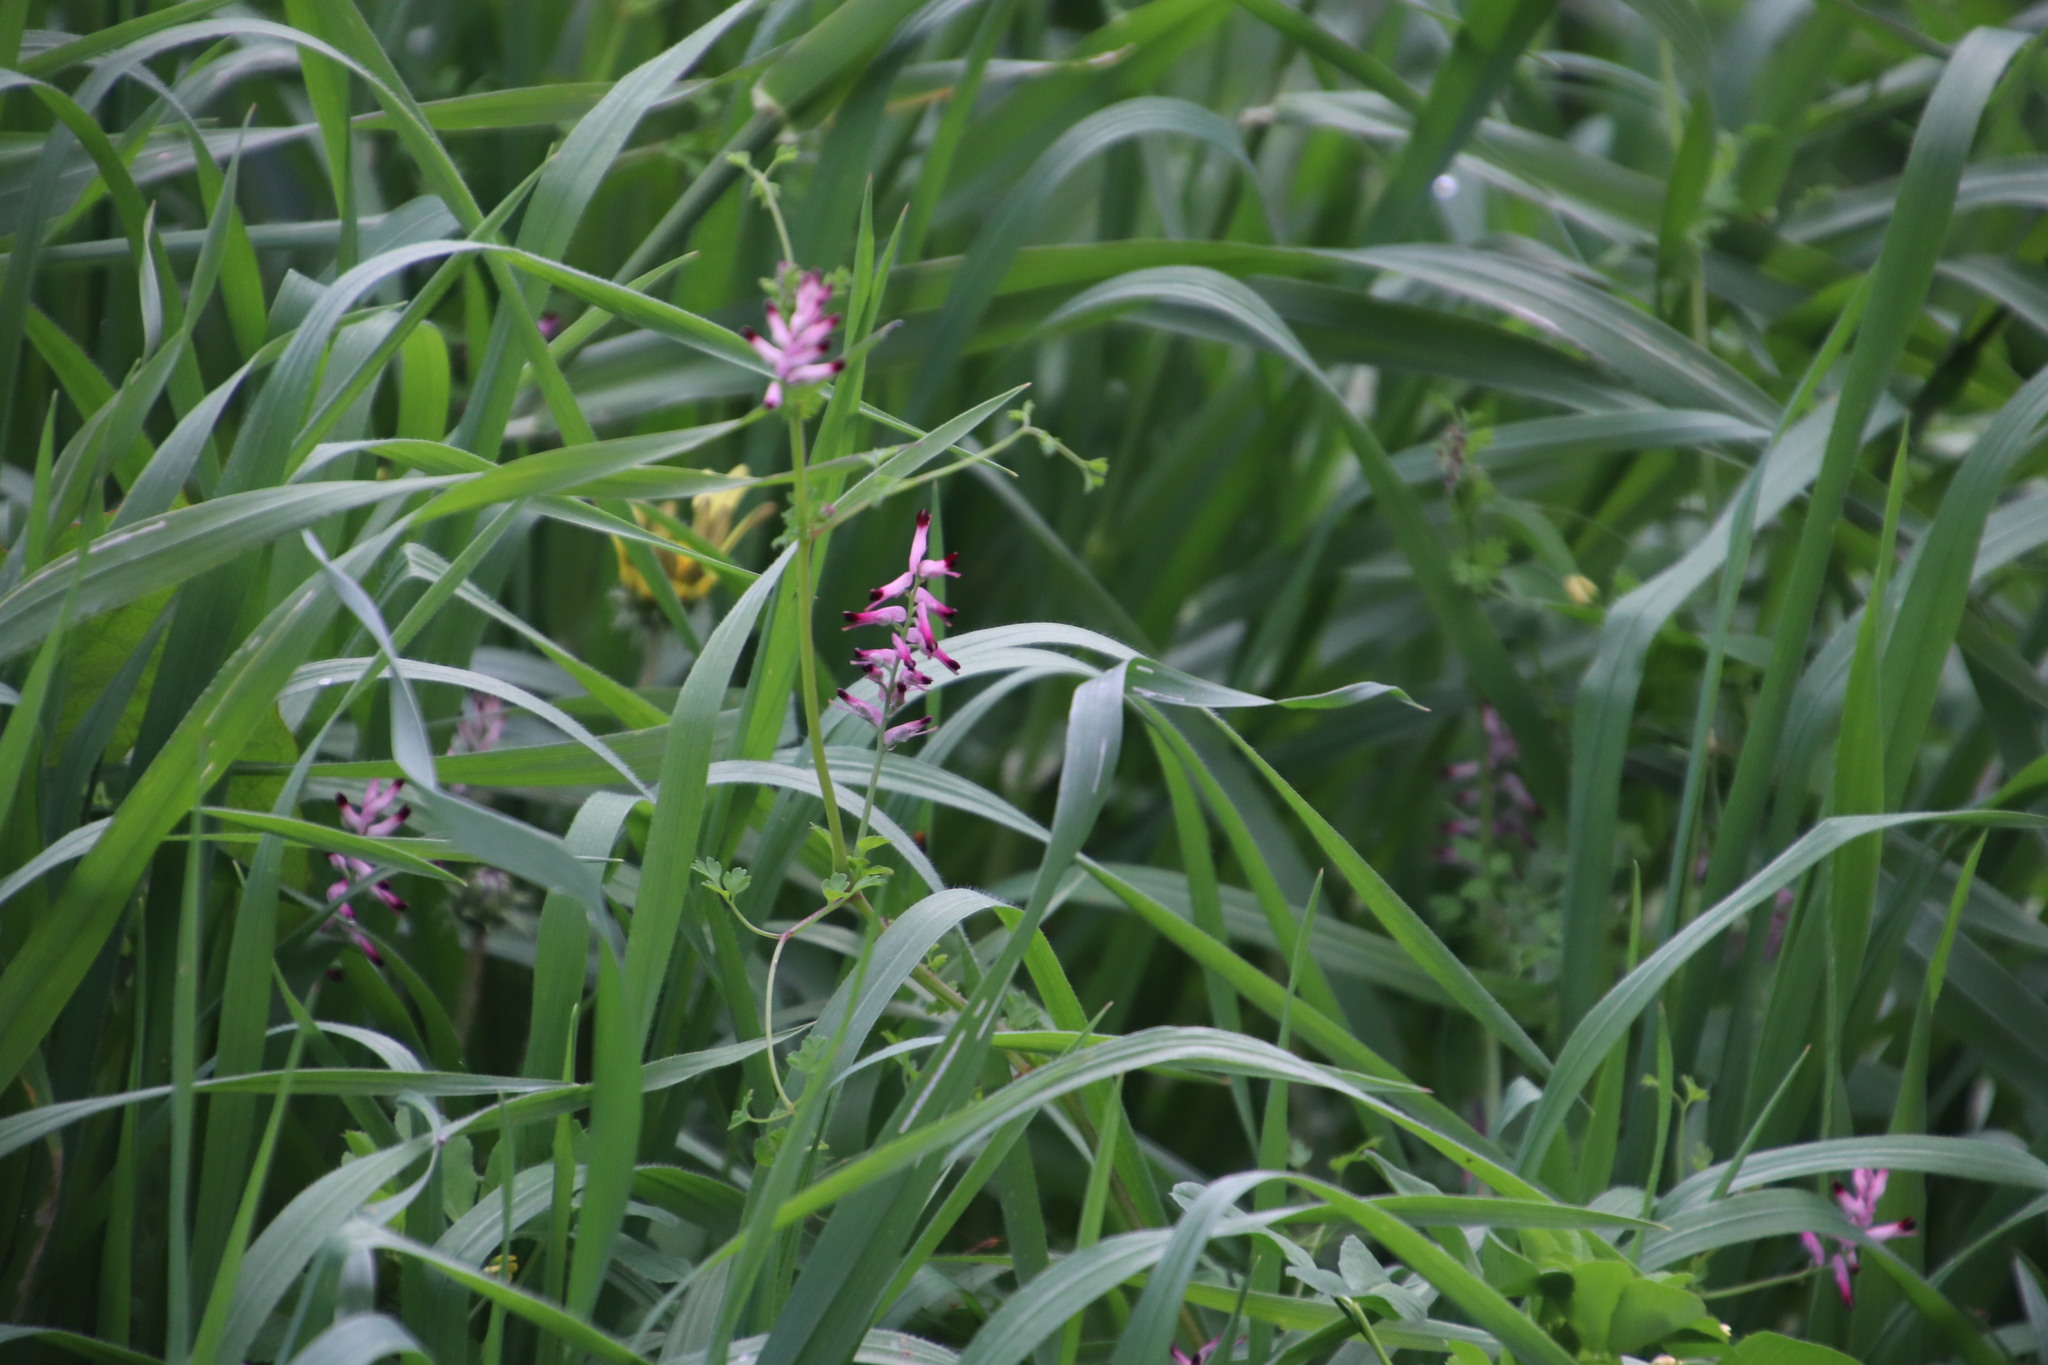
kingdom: Plantae
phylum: Tracheophyta
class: Magnoliopsida
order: Ranunculales
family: Papaveraceae
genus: Fumaria
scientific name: Fumaria muralis
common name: Common ramping-fumitory
